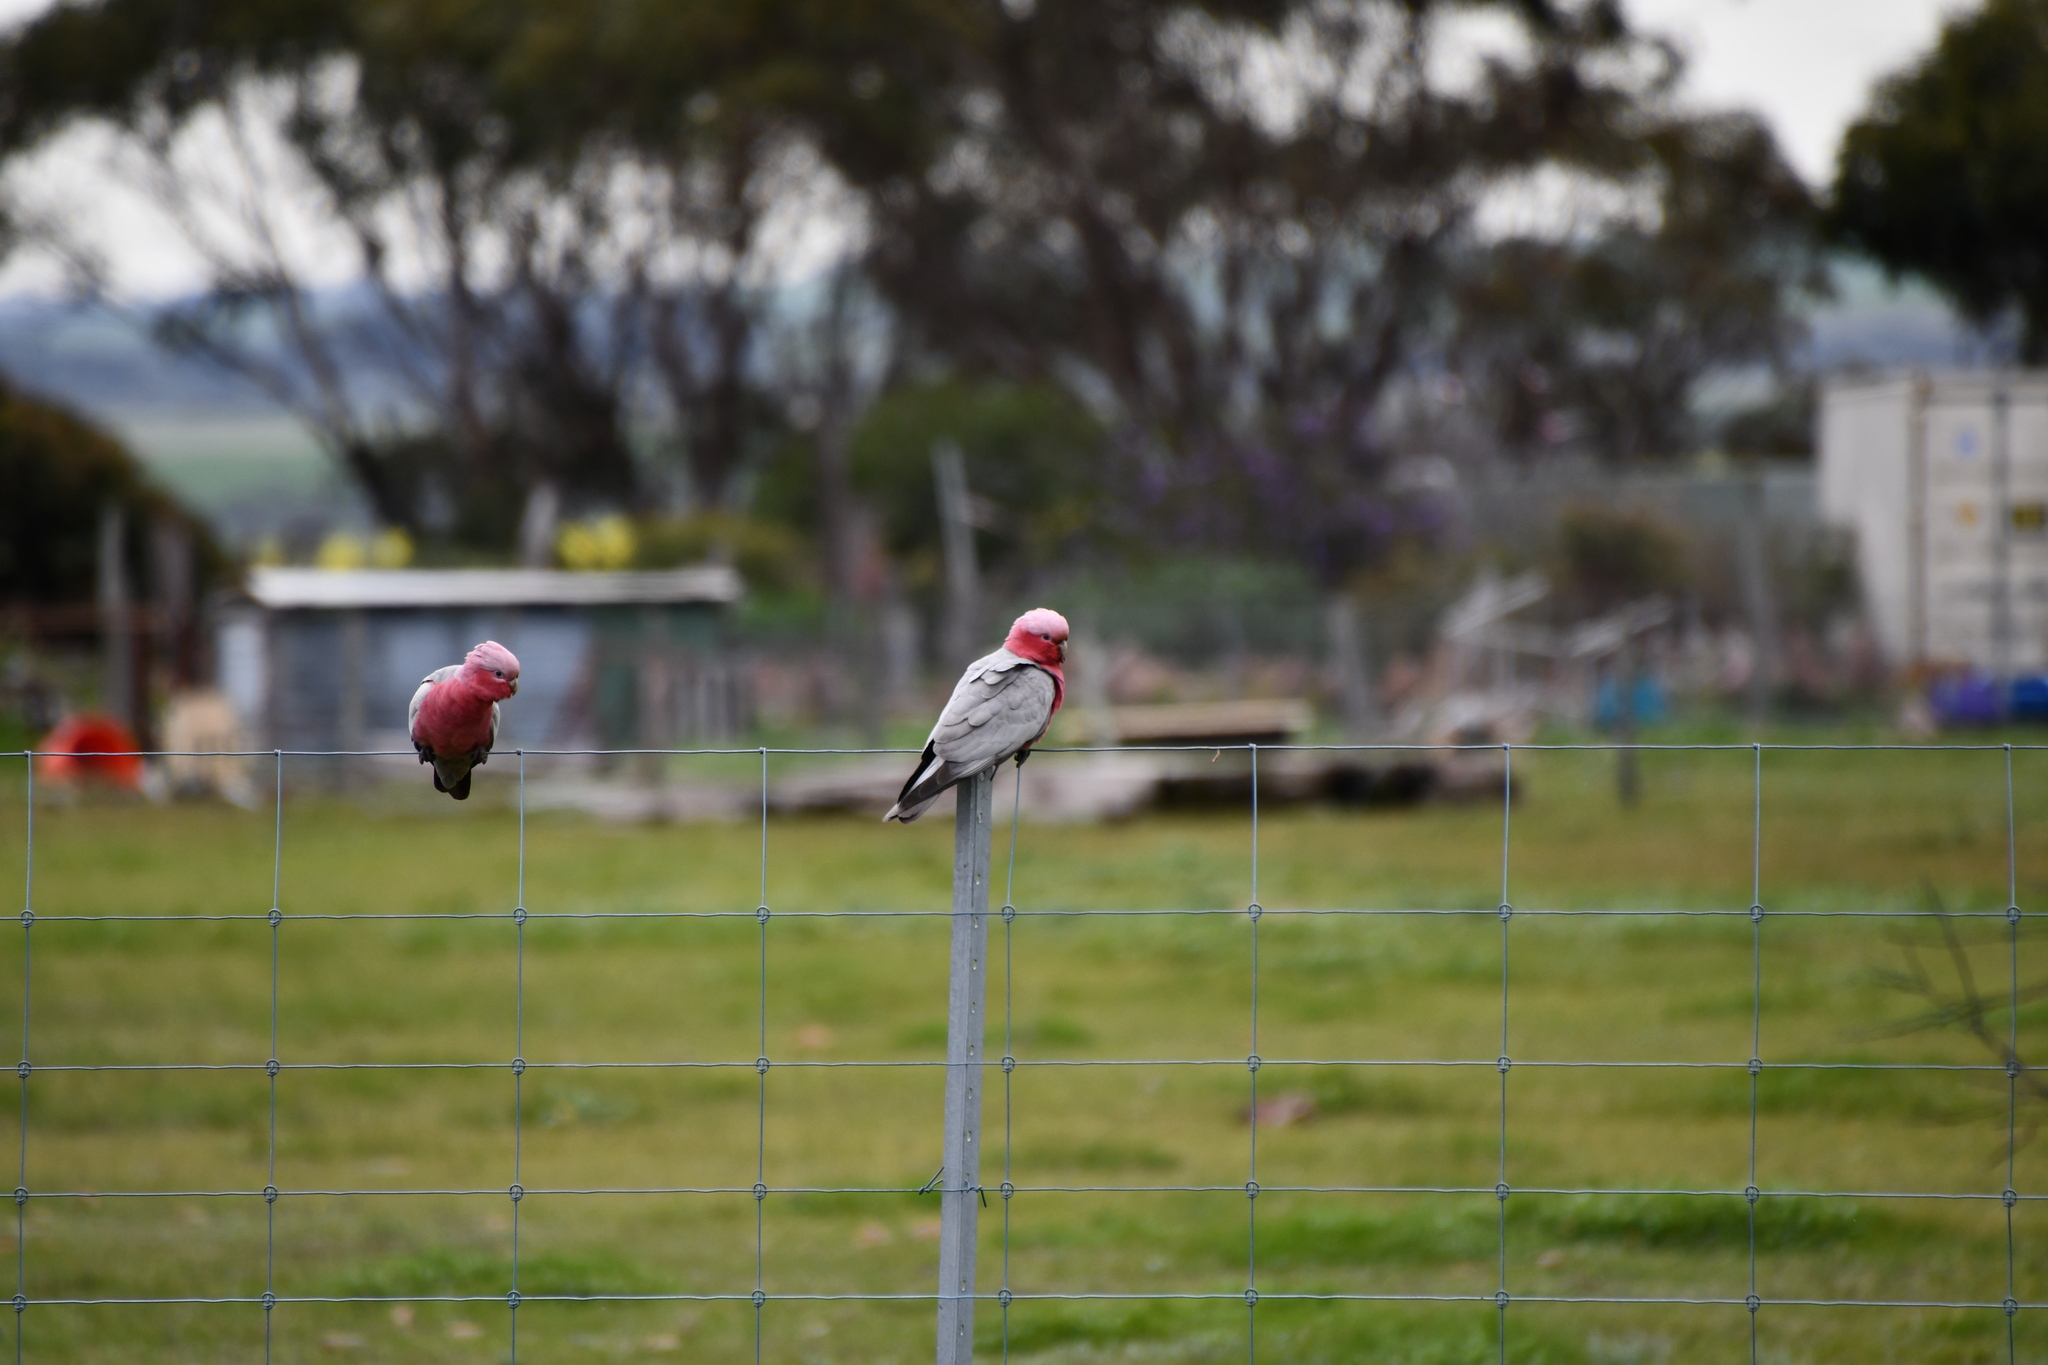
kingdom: Animalia
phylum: Chordata
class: Aves
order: Psittaciformes
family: Psittacidae
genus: Eolophus
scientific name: Eolophus roseicapilla
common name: Galah
